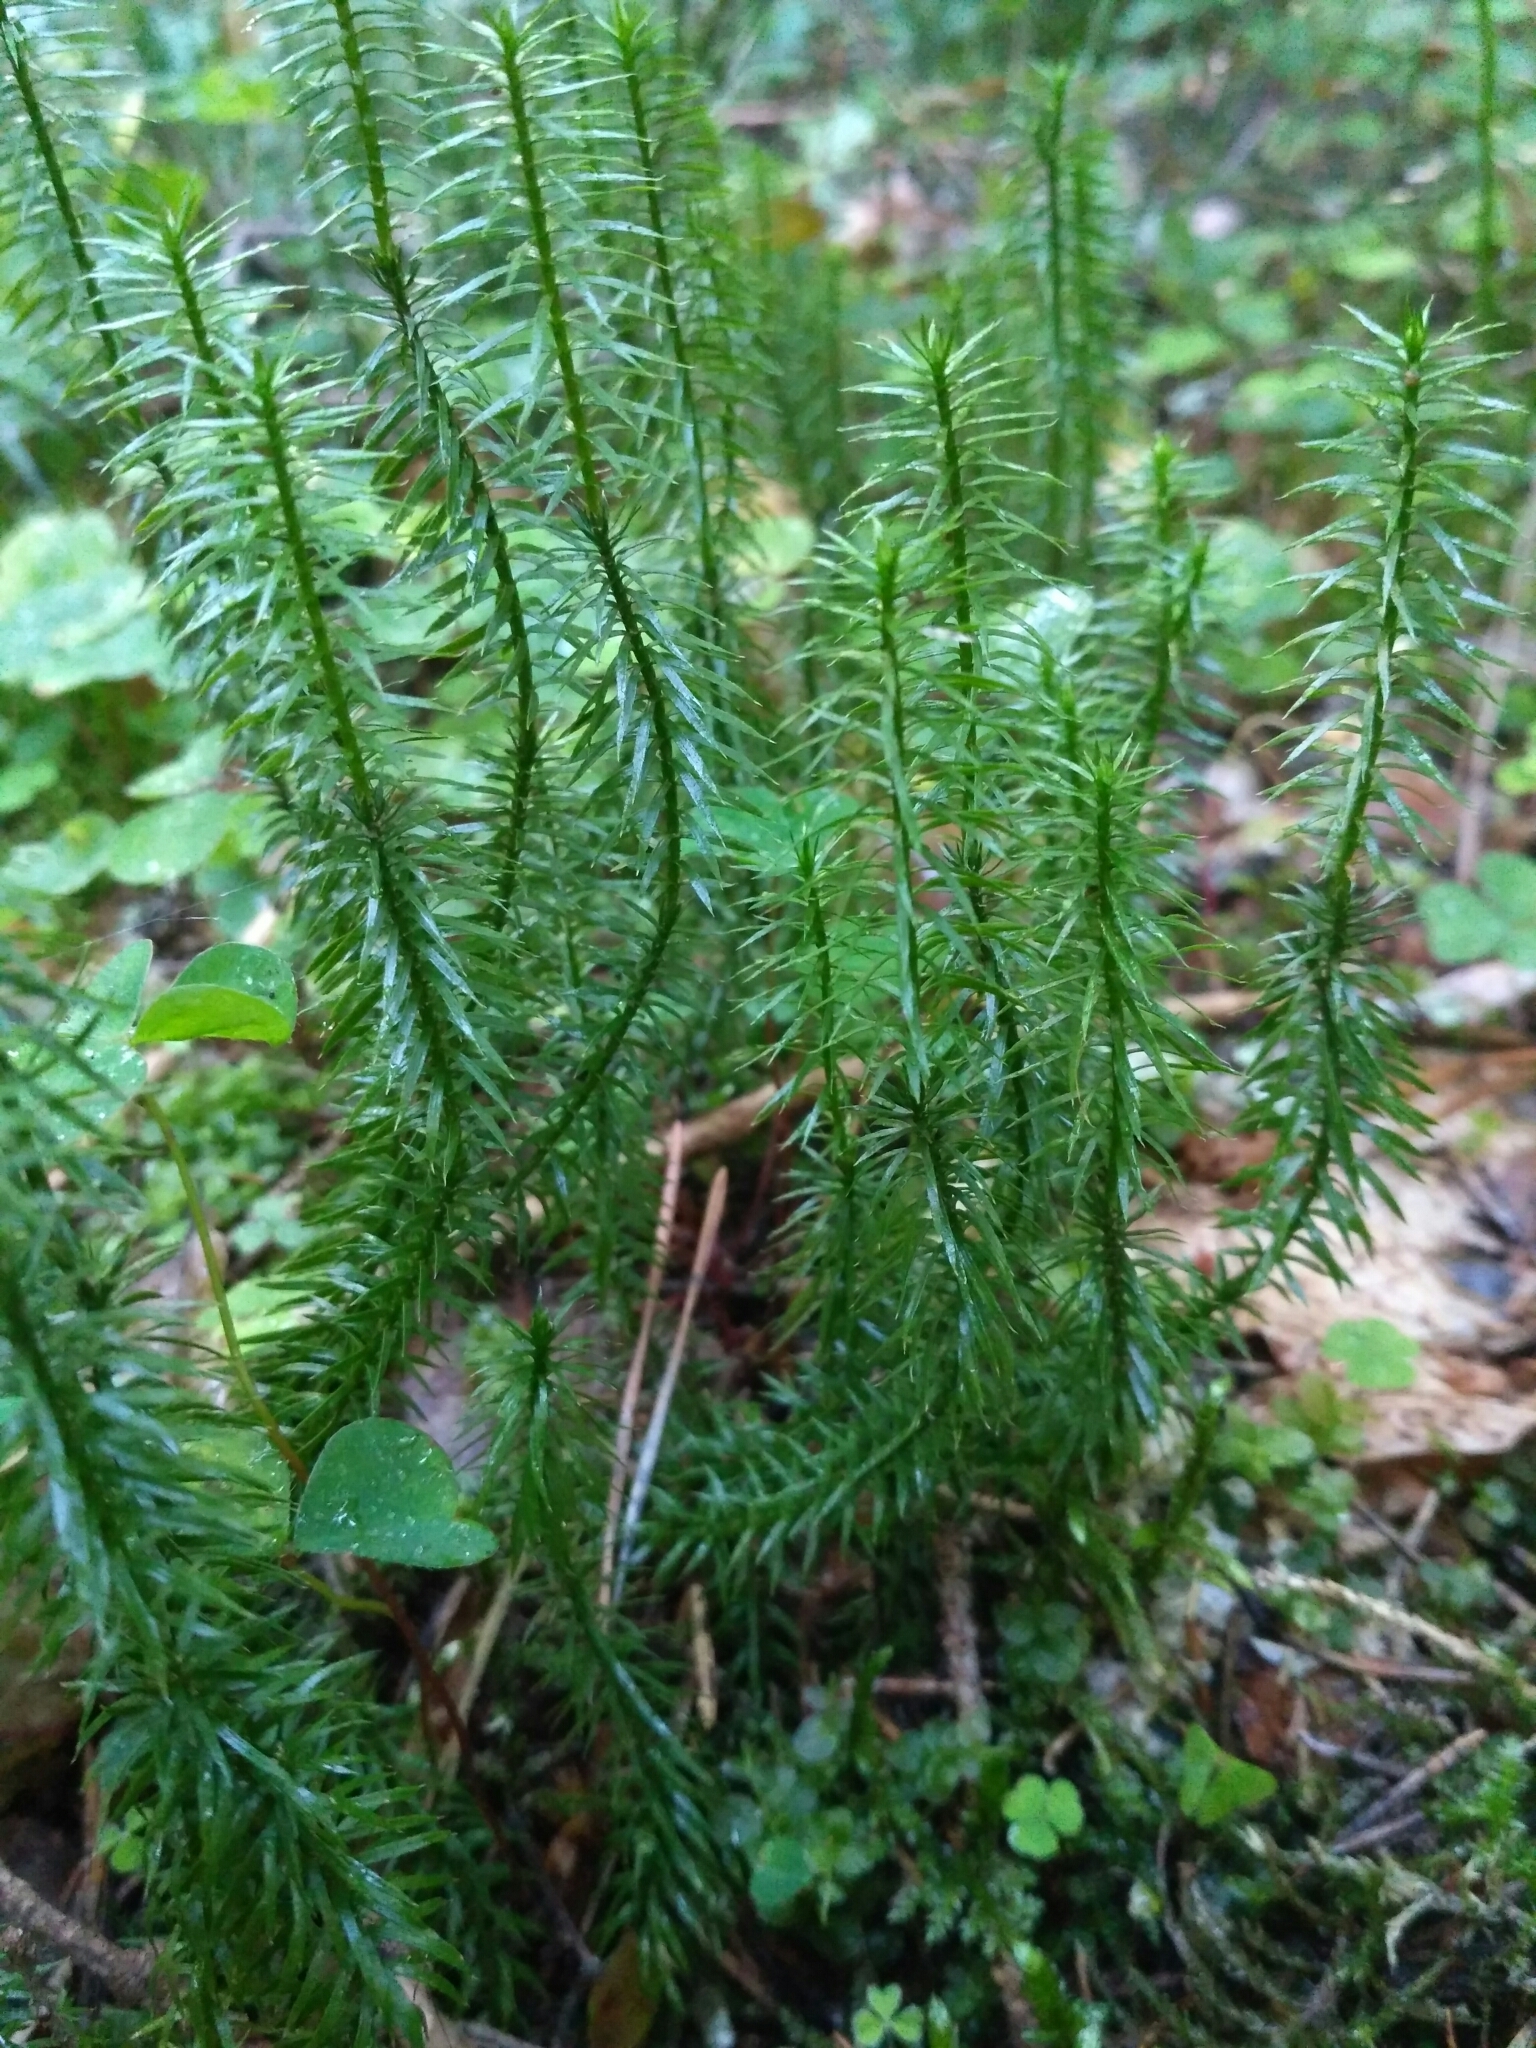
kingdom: Plantae
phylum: Tracheophyta
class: Lycopodiopsida
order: Lycopodiales
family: Lycopodiaceae
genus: Spinulum
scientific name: Spinulum annotinum
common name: Interrupted club-moss
